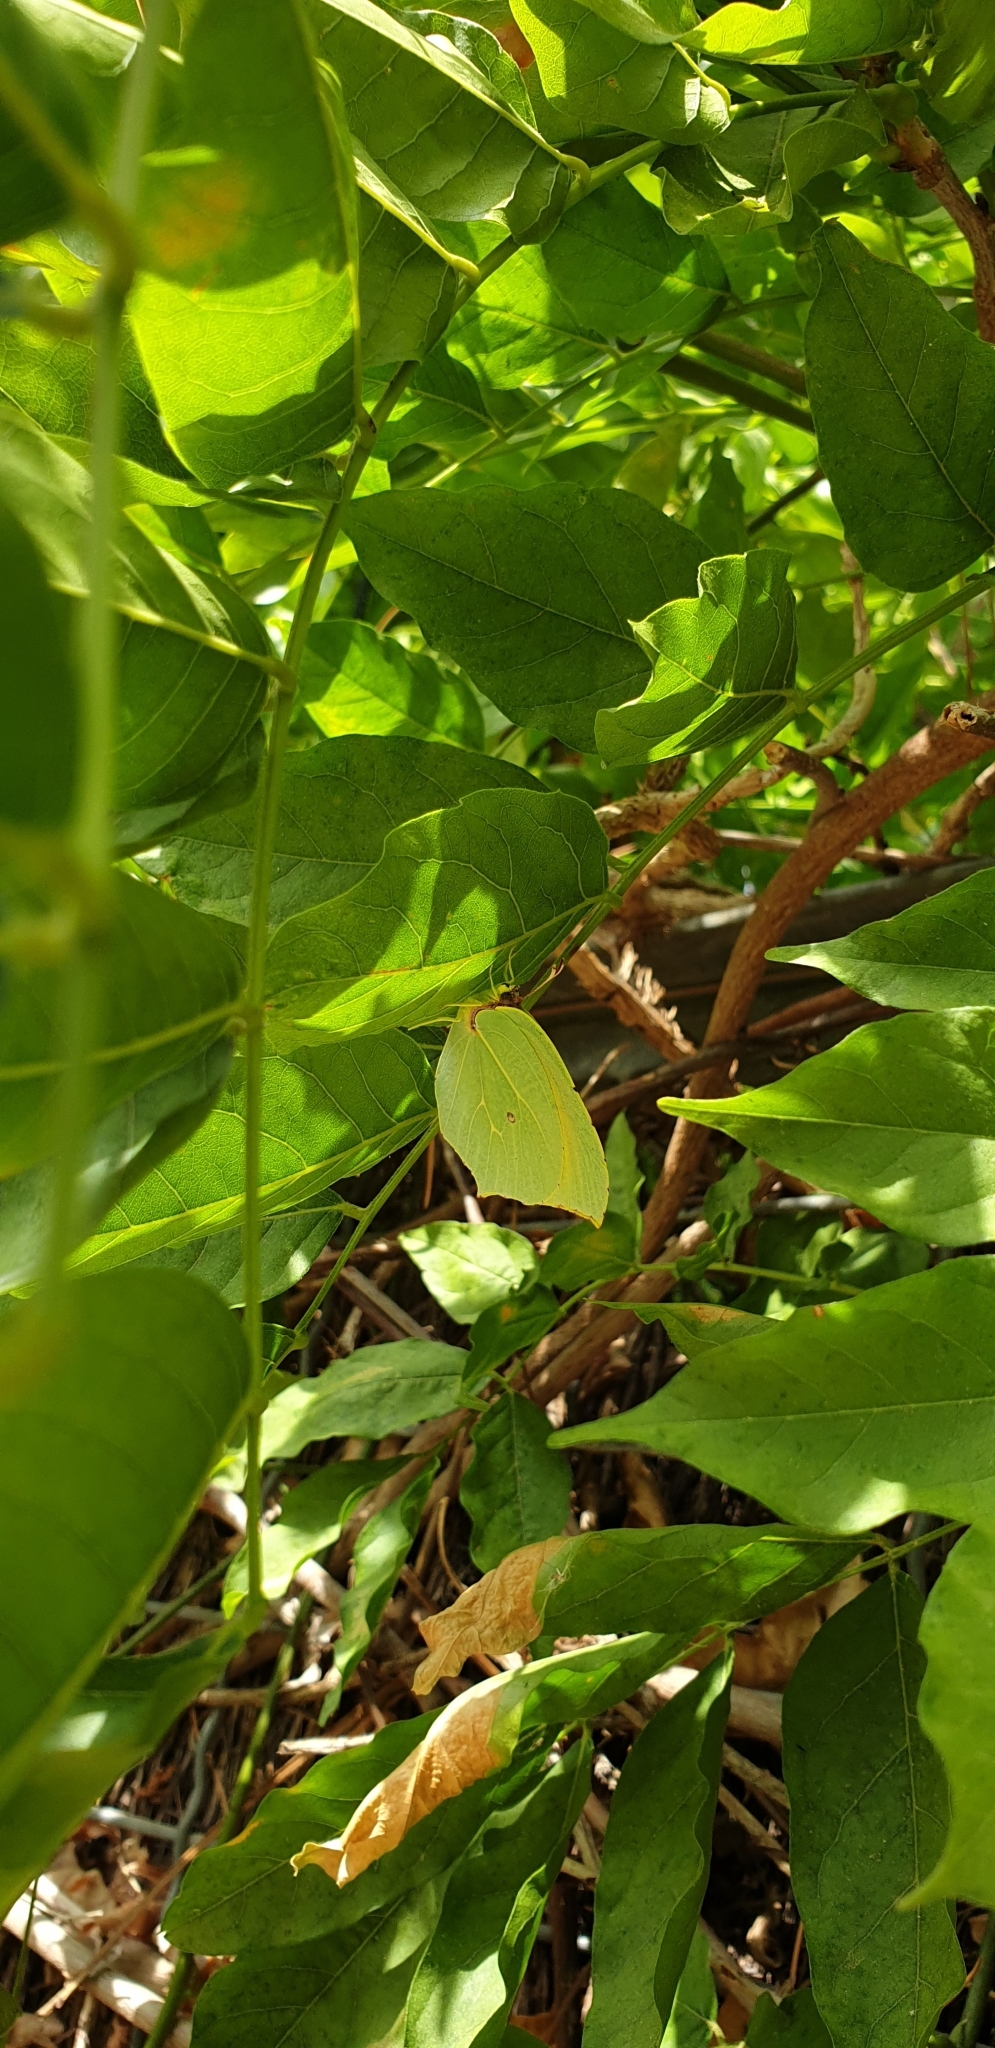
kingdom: Animalia
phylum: Arthropoda
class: Insecta
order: Lepidoptera
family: Pieridae
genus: Gonepteryx
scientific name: Gonepteryx rhamni
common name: Brimstone
